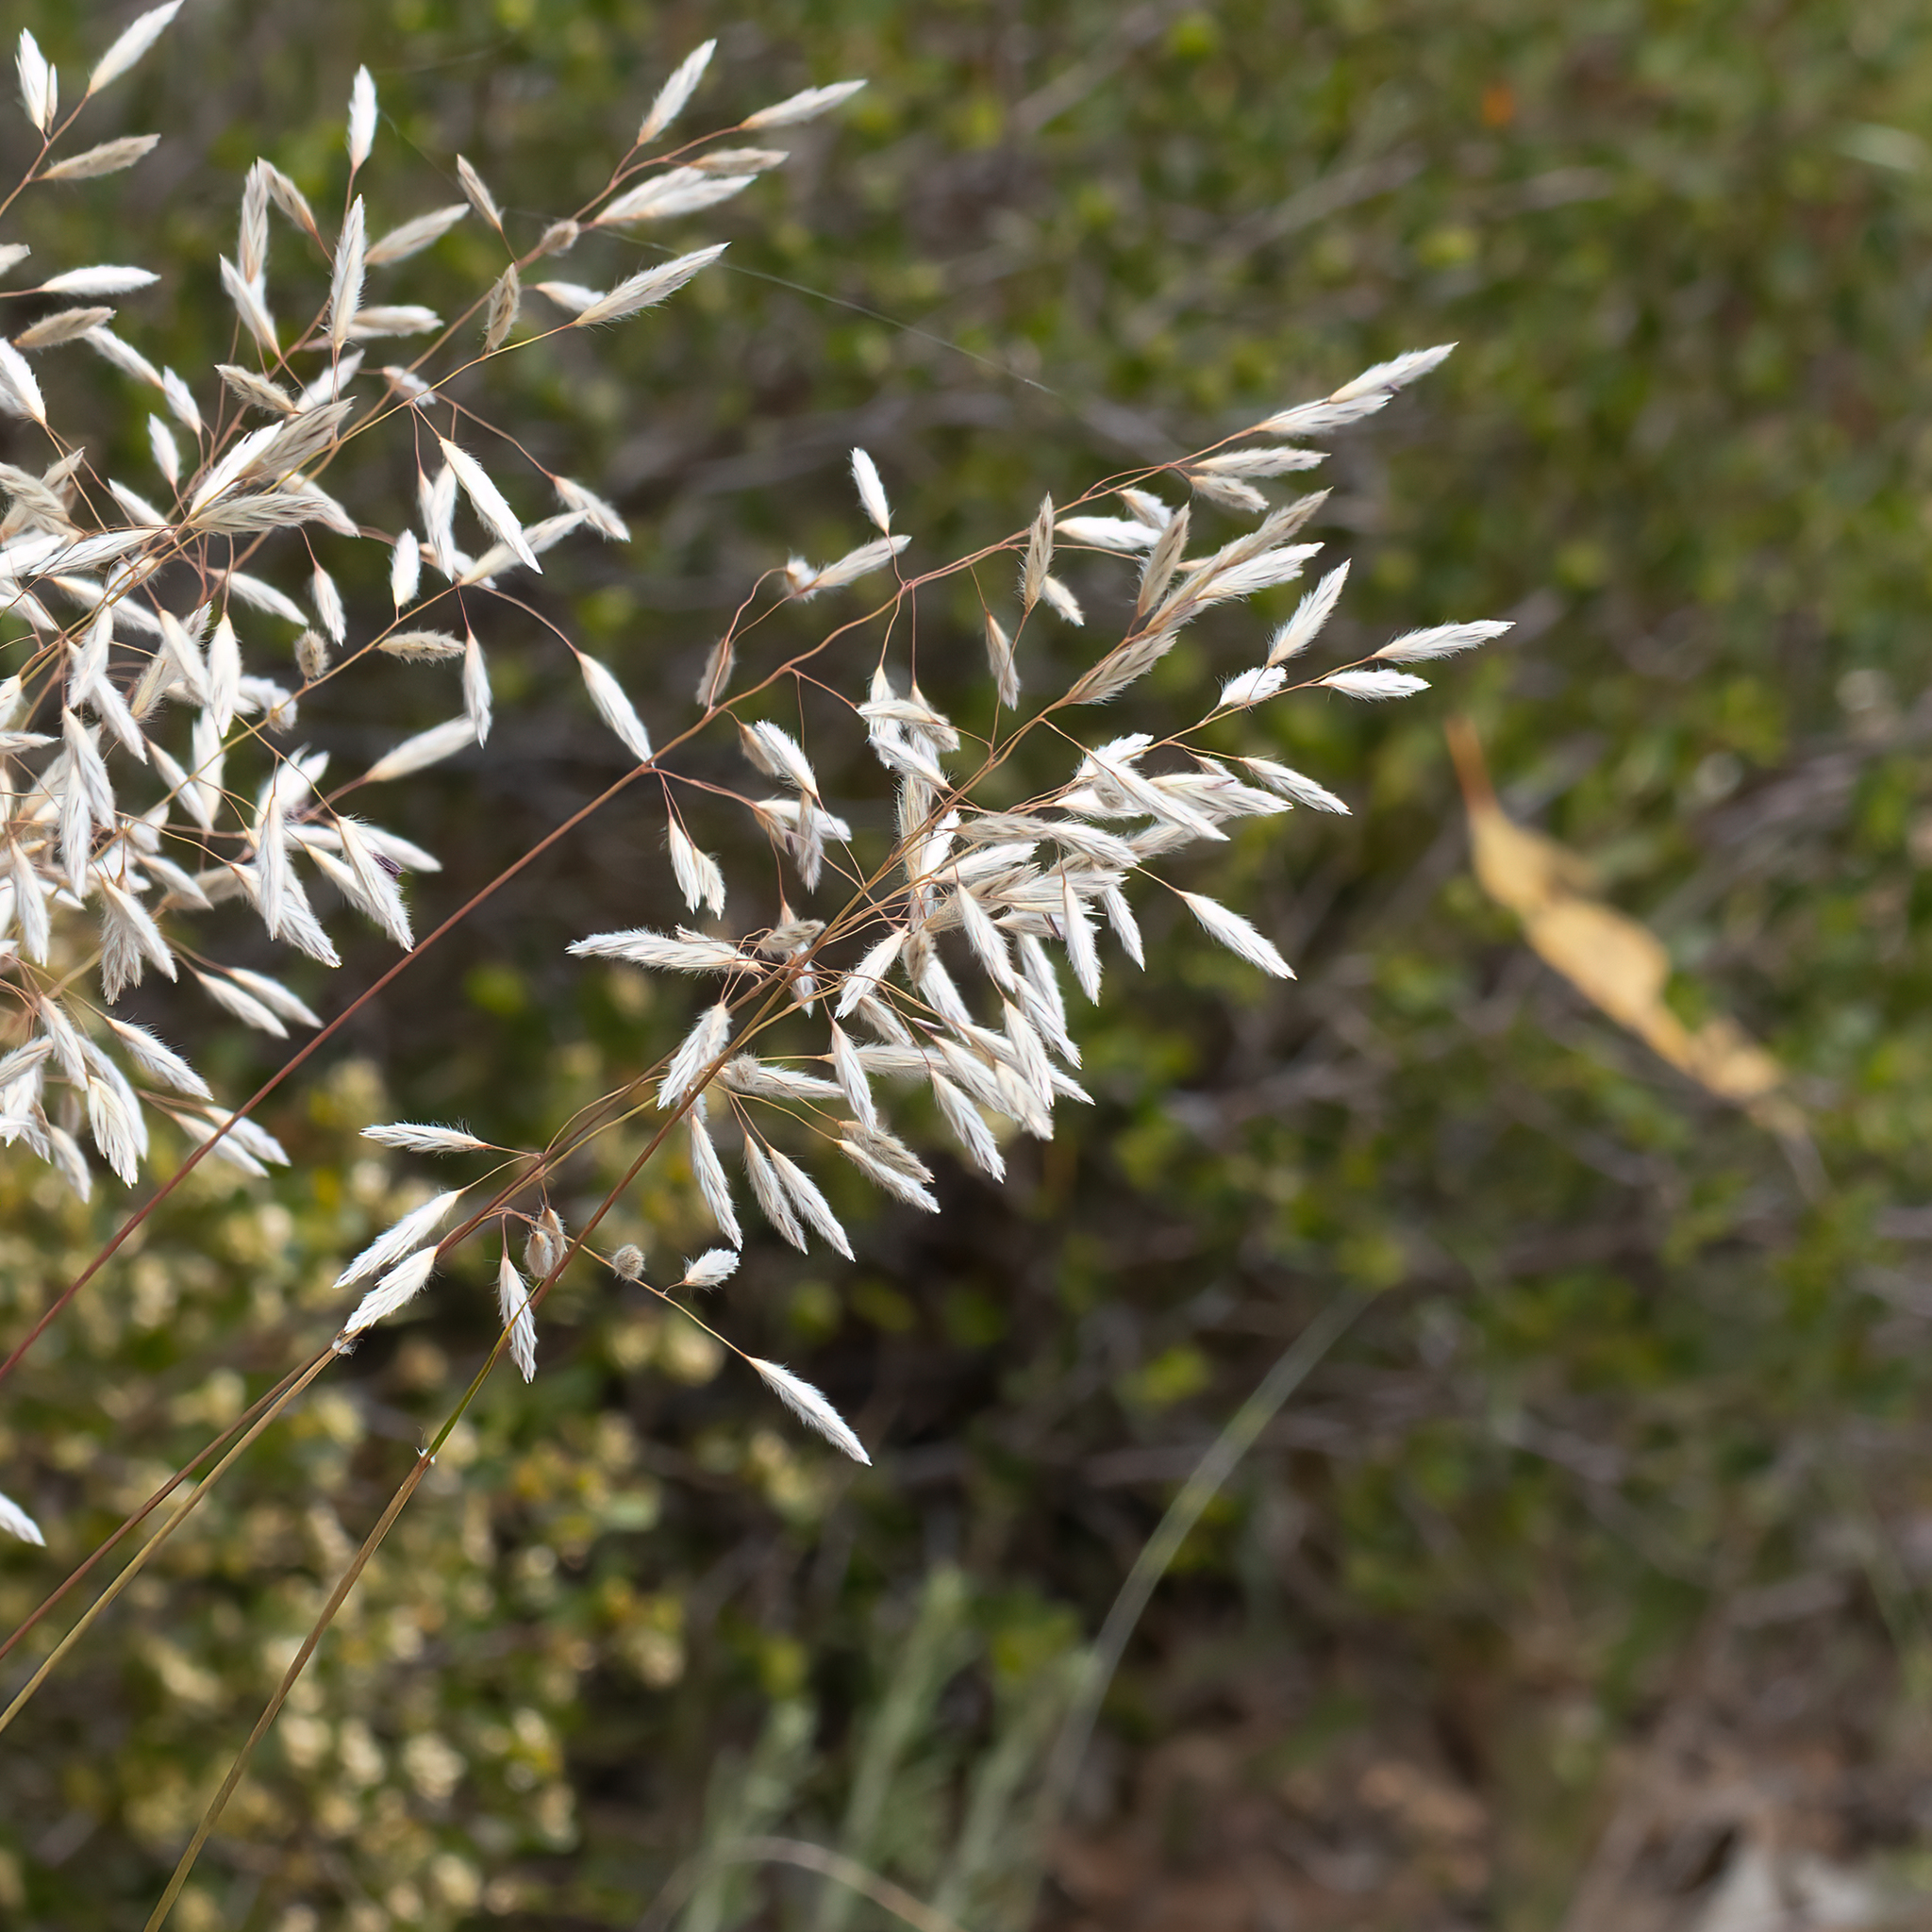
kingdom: Plantae
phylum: Tracheophyta
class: Liliopsida
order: Poales
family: Poaceae
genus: Triodia
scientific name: Triodia lanata
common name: Wooly spinifex
